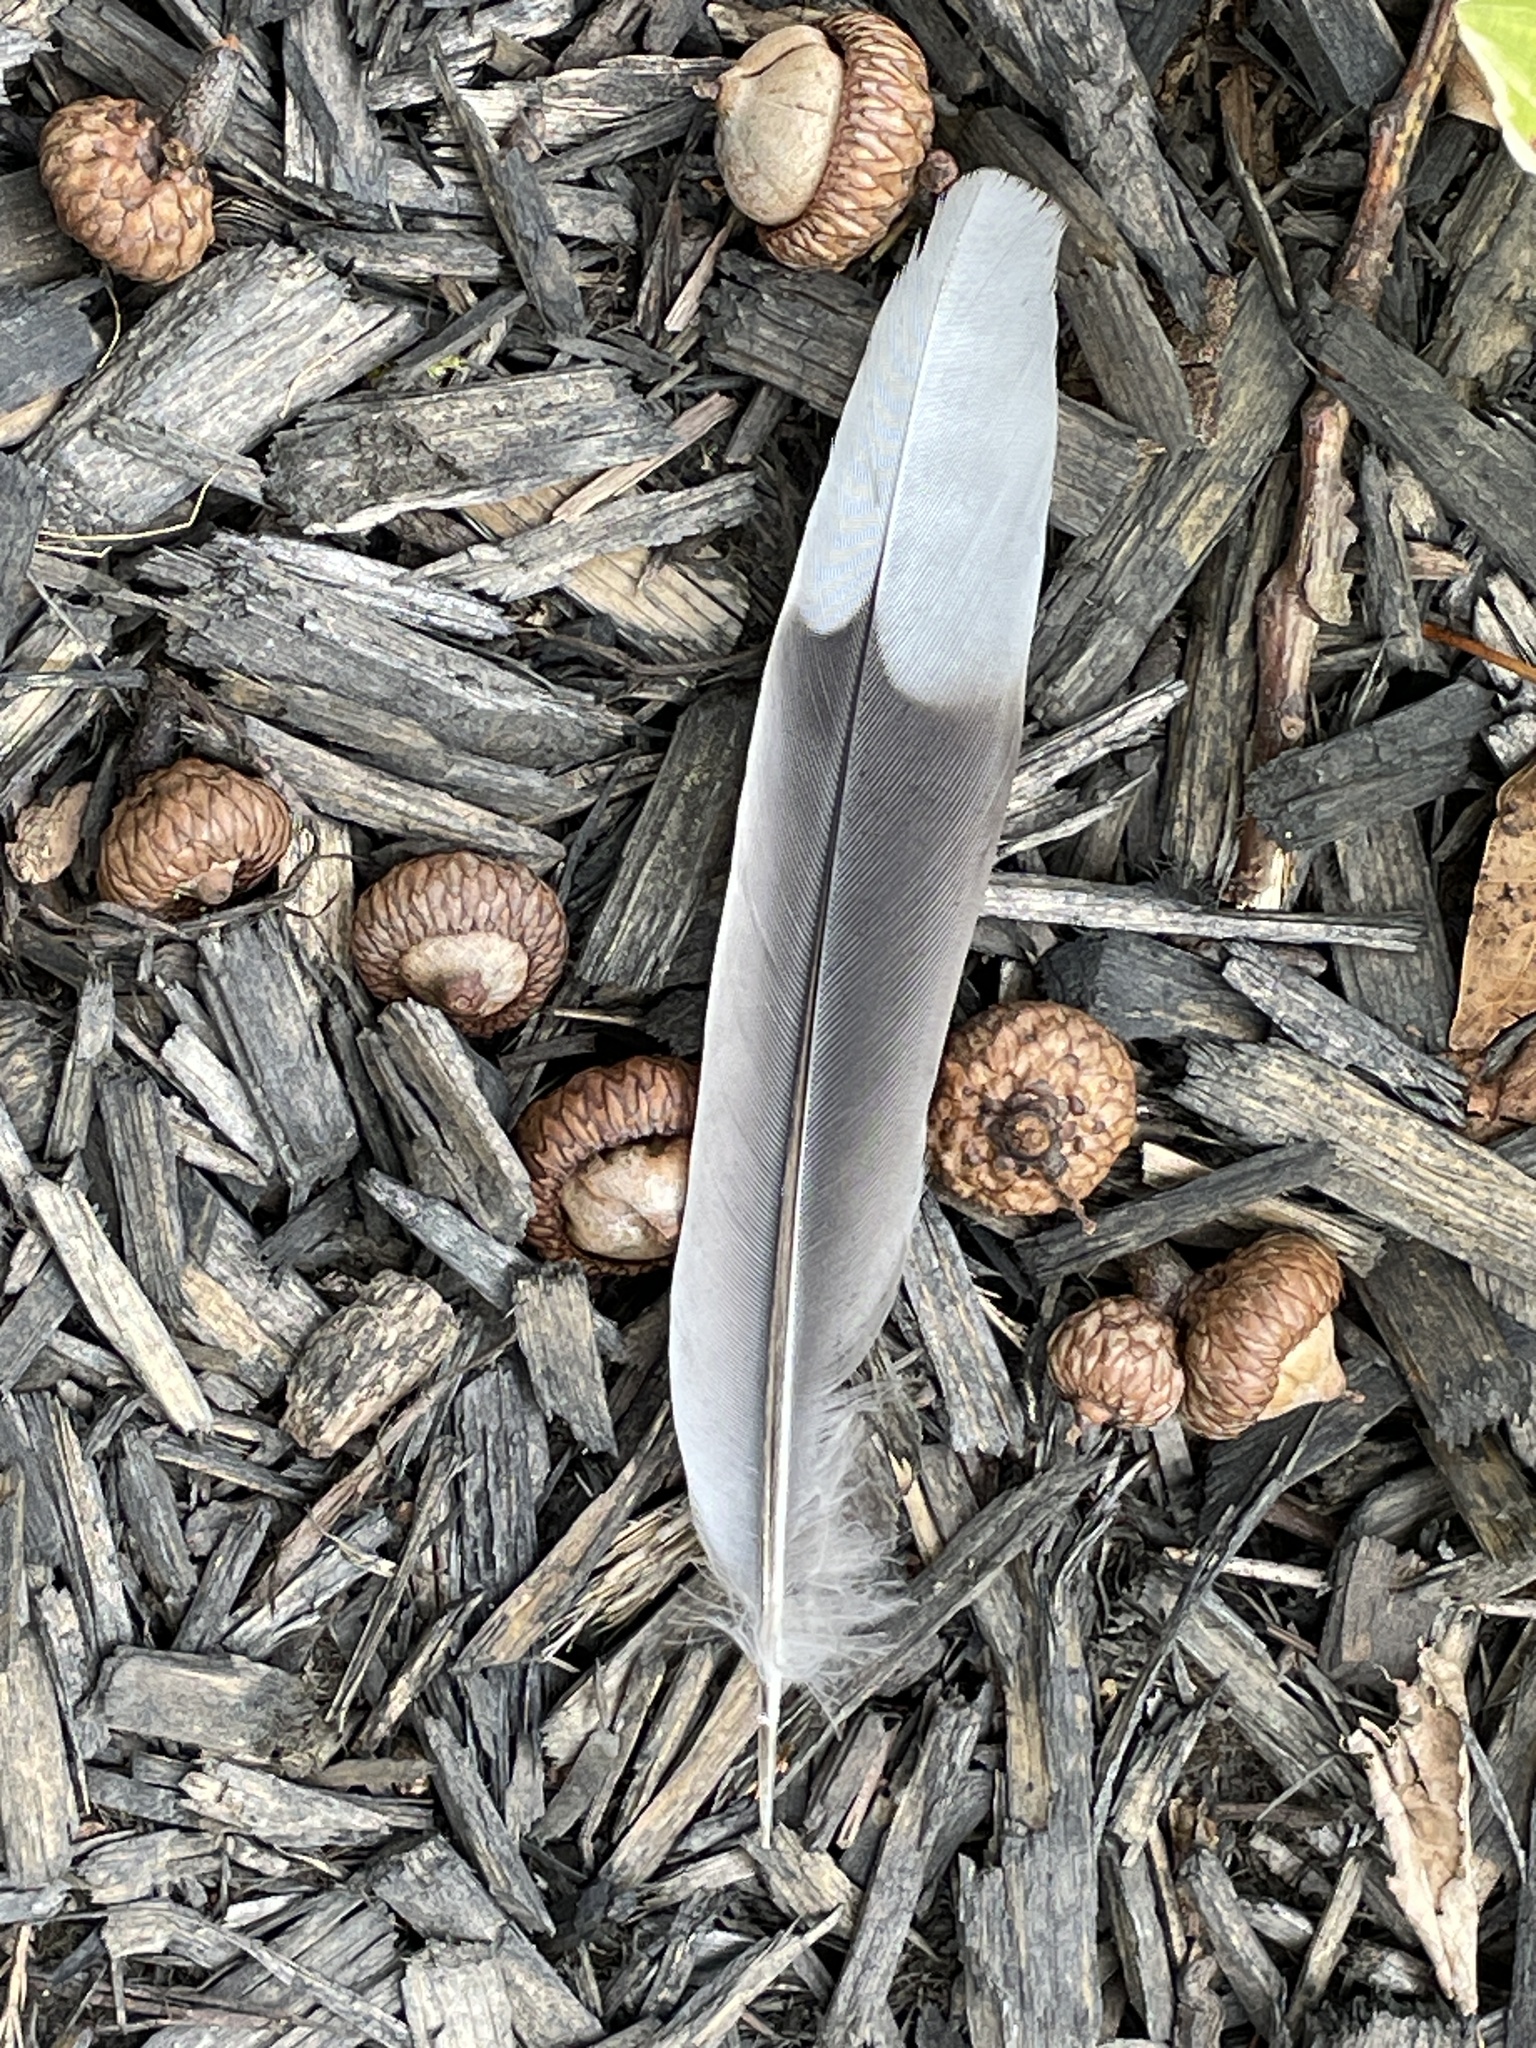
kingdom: Animalia
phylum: Chordata
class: Aves
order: Columbiformes
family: Columbidae
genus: Zenaida
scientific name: Zenaida macroura
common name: Mourning dove
